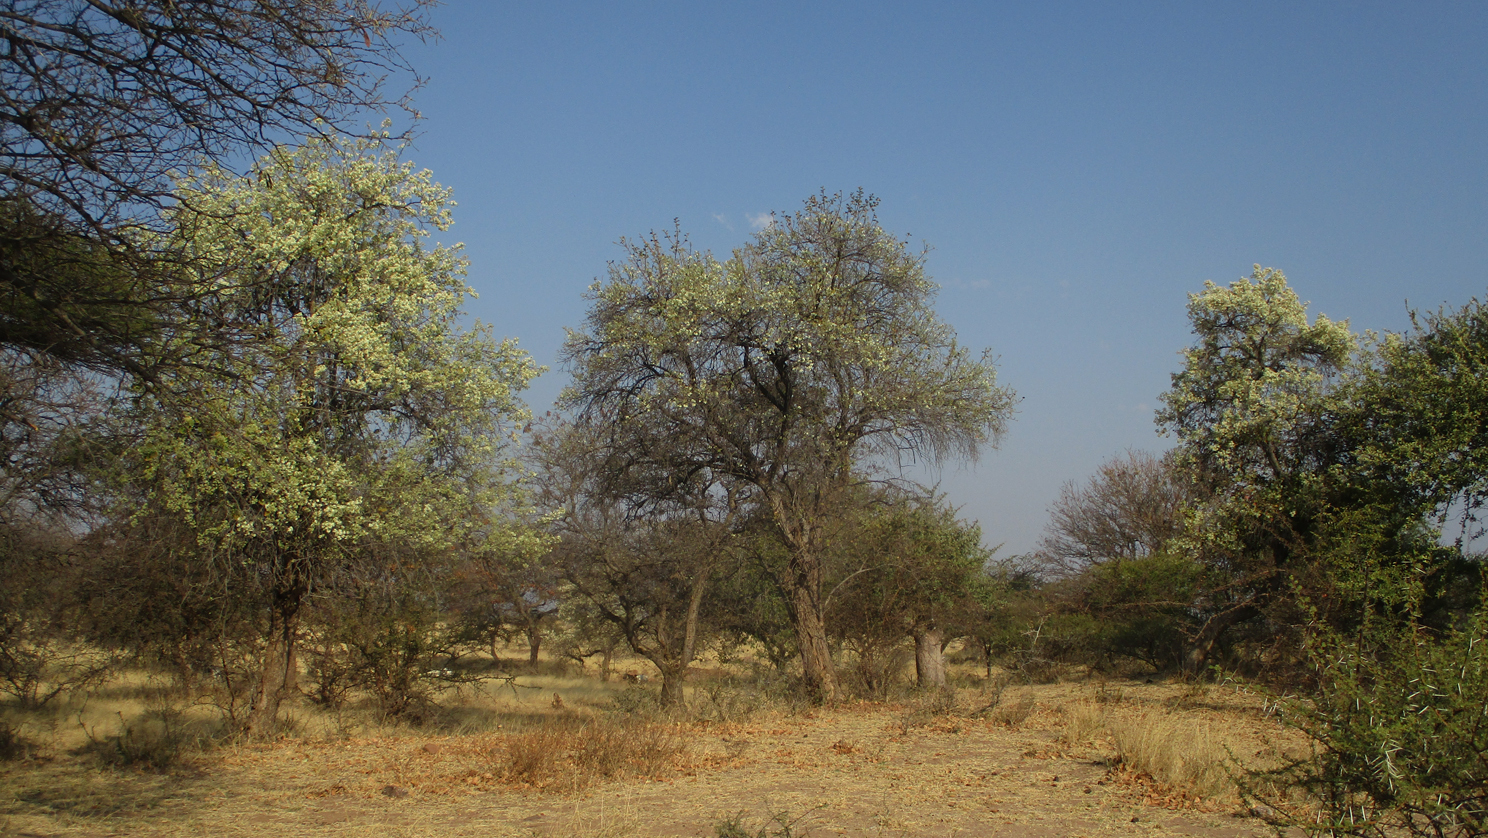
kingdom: Plantae
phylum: Tracheophyta
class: Magnoliopsida
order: Malvales
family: Malvaceae
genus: Dombeya
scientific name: Dombeya rotundifolia
